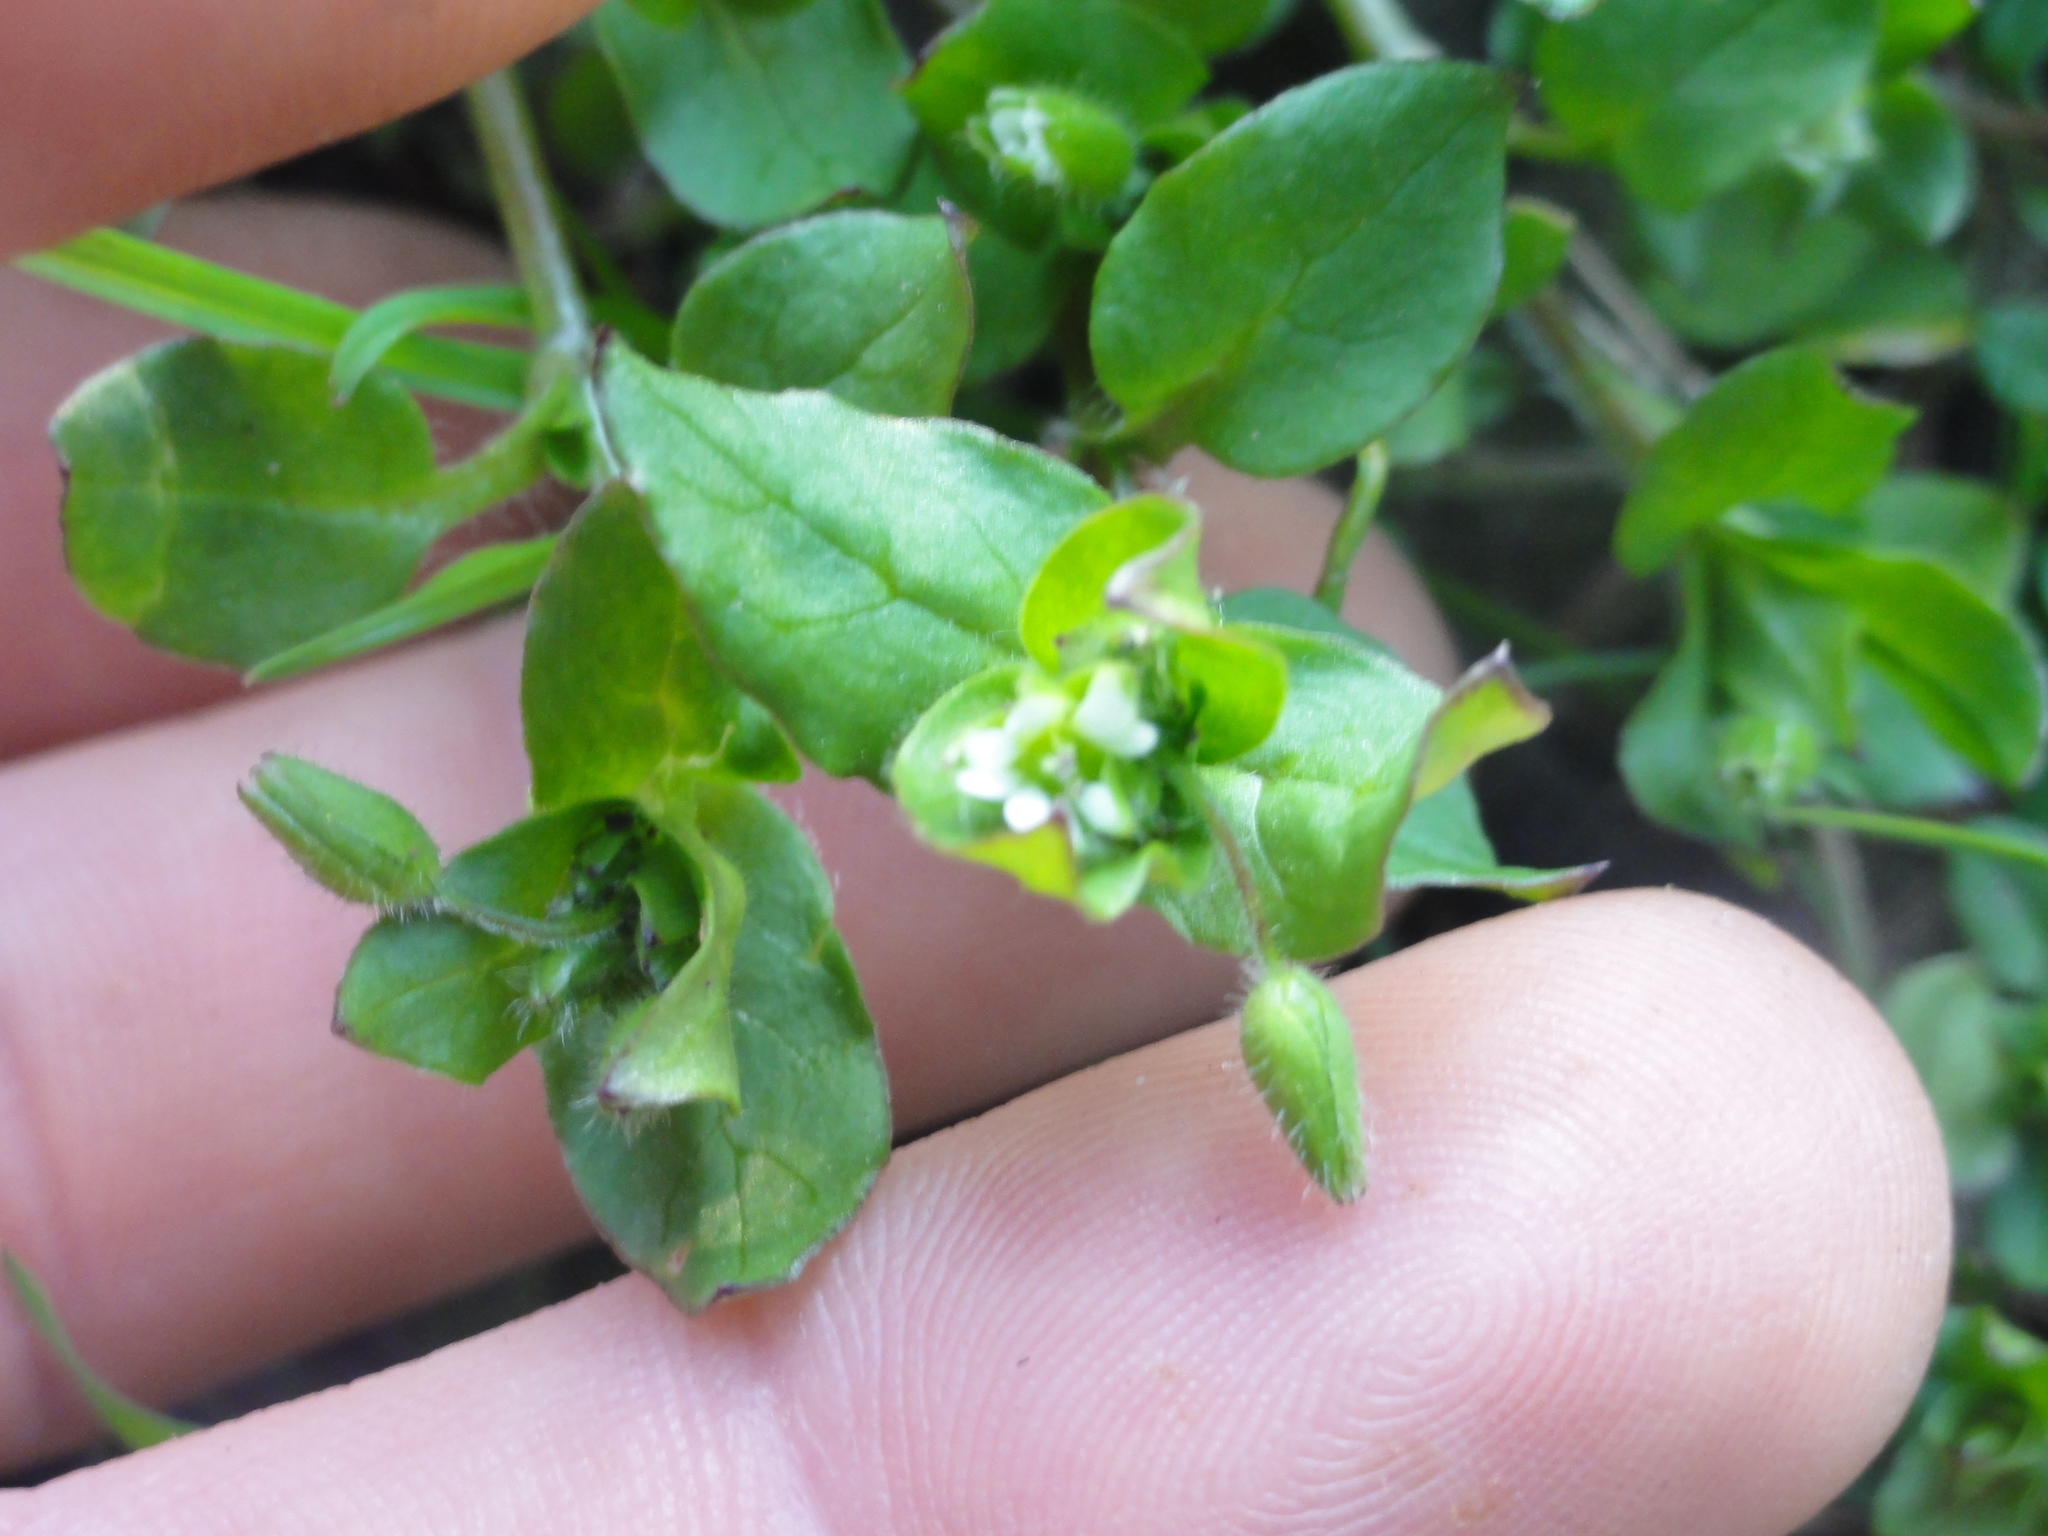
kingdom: Plantae
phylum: Tracheophyta
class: Magnoliopsida
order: Caryophyllales
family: Caryophyllaceae
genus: Stellaria
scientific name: Stellaria media
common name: Common chickweed
